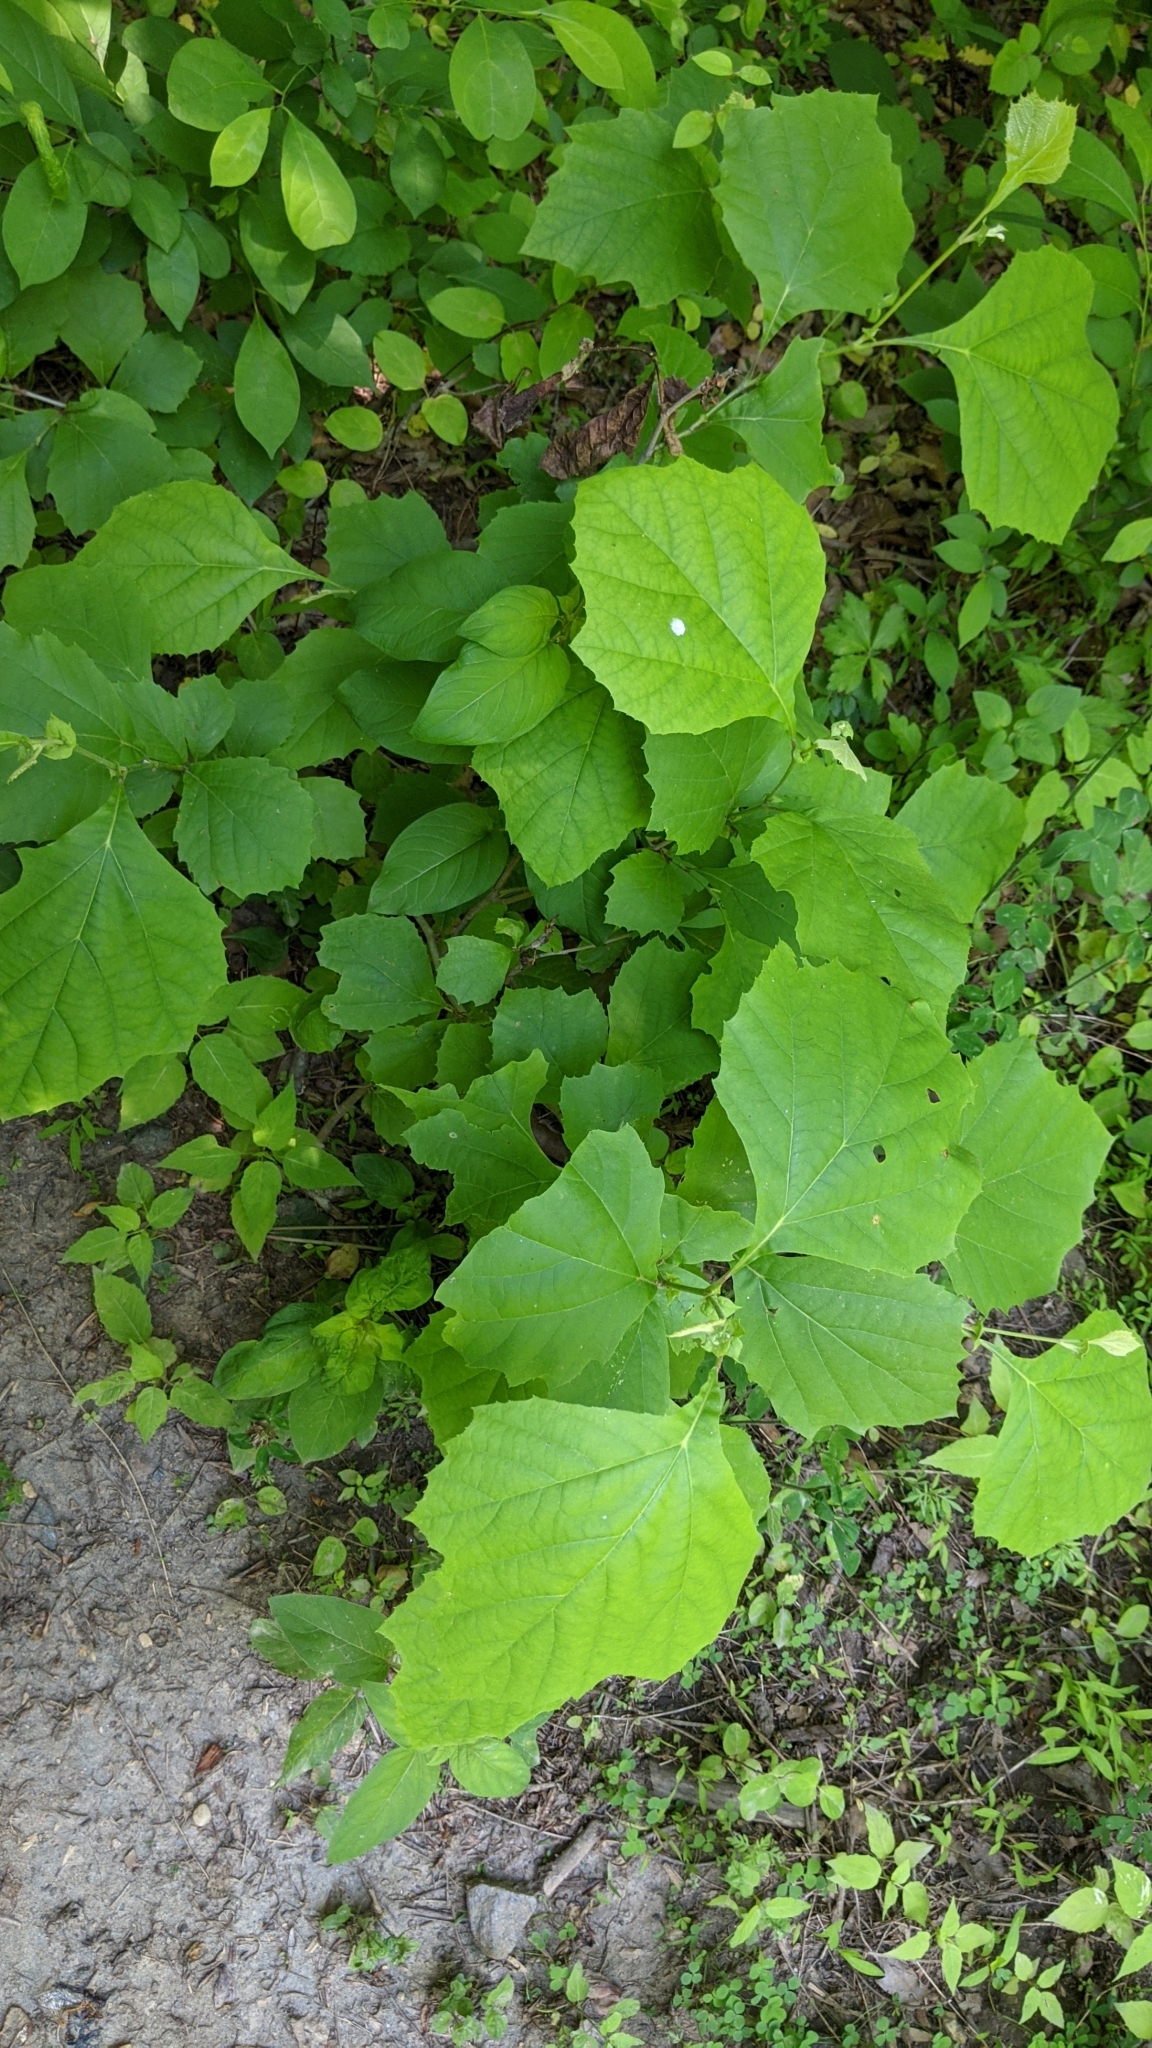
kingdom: Plantae
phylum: Tracheophyta
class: Magnoliopsida
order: Proteales
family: Platanaceae
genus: Platanus
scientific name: Platanus occidentalis
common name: American sycamore
